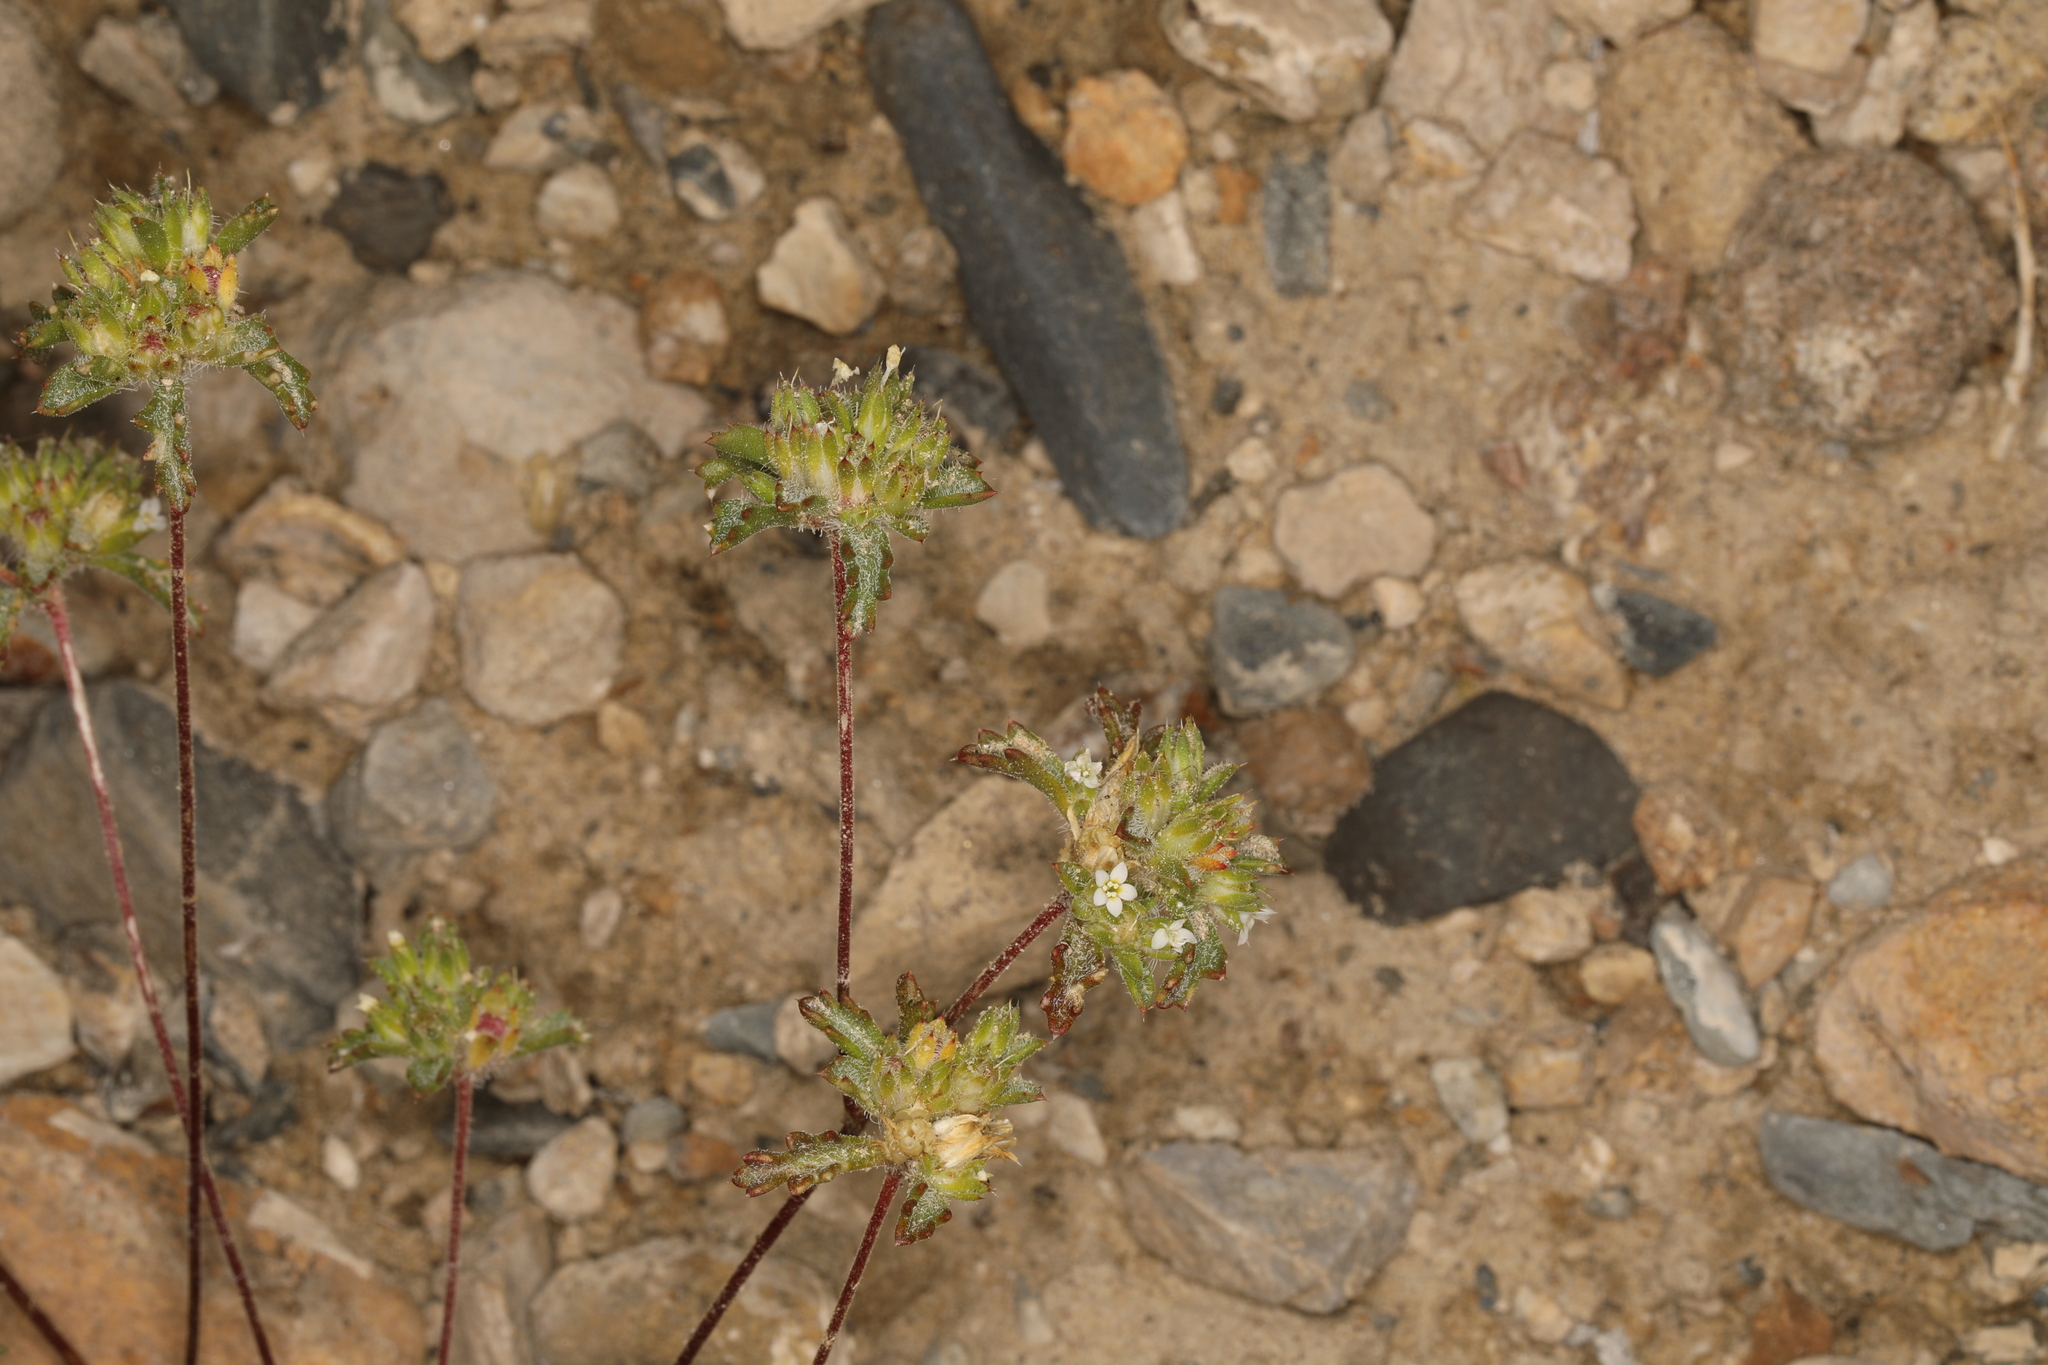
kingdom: Plantae
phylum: Tracheophyta
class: Magnoliopsida
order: Ericales
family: Polemoniaceae
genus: Ipomopsis
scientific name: Ipomopsis polycladon
